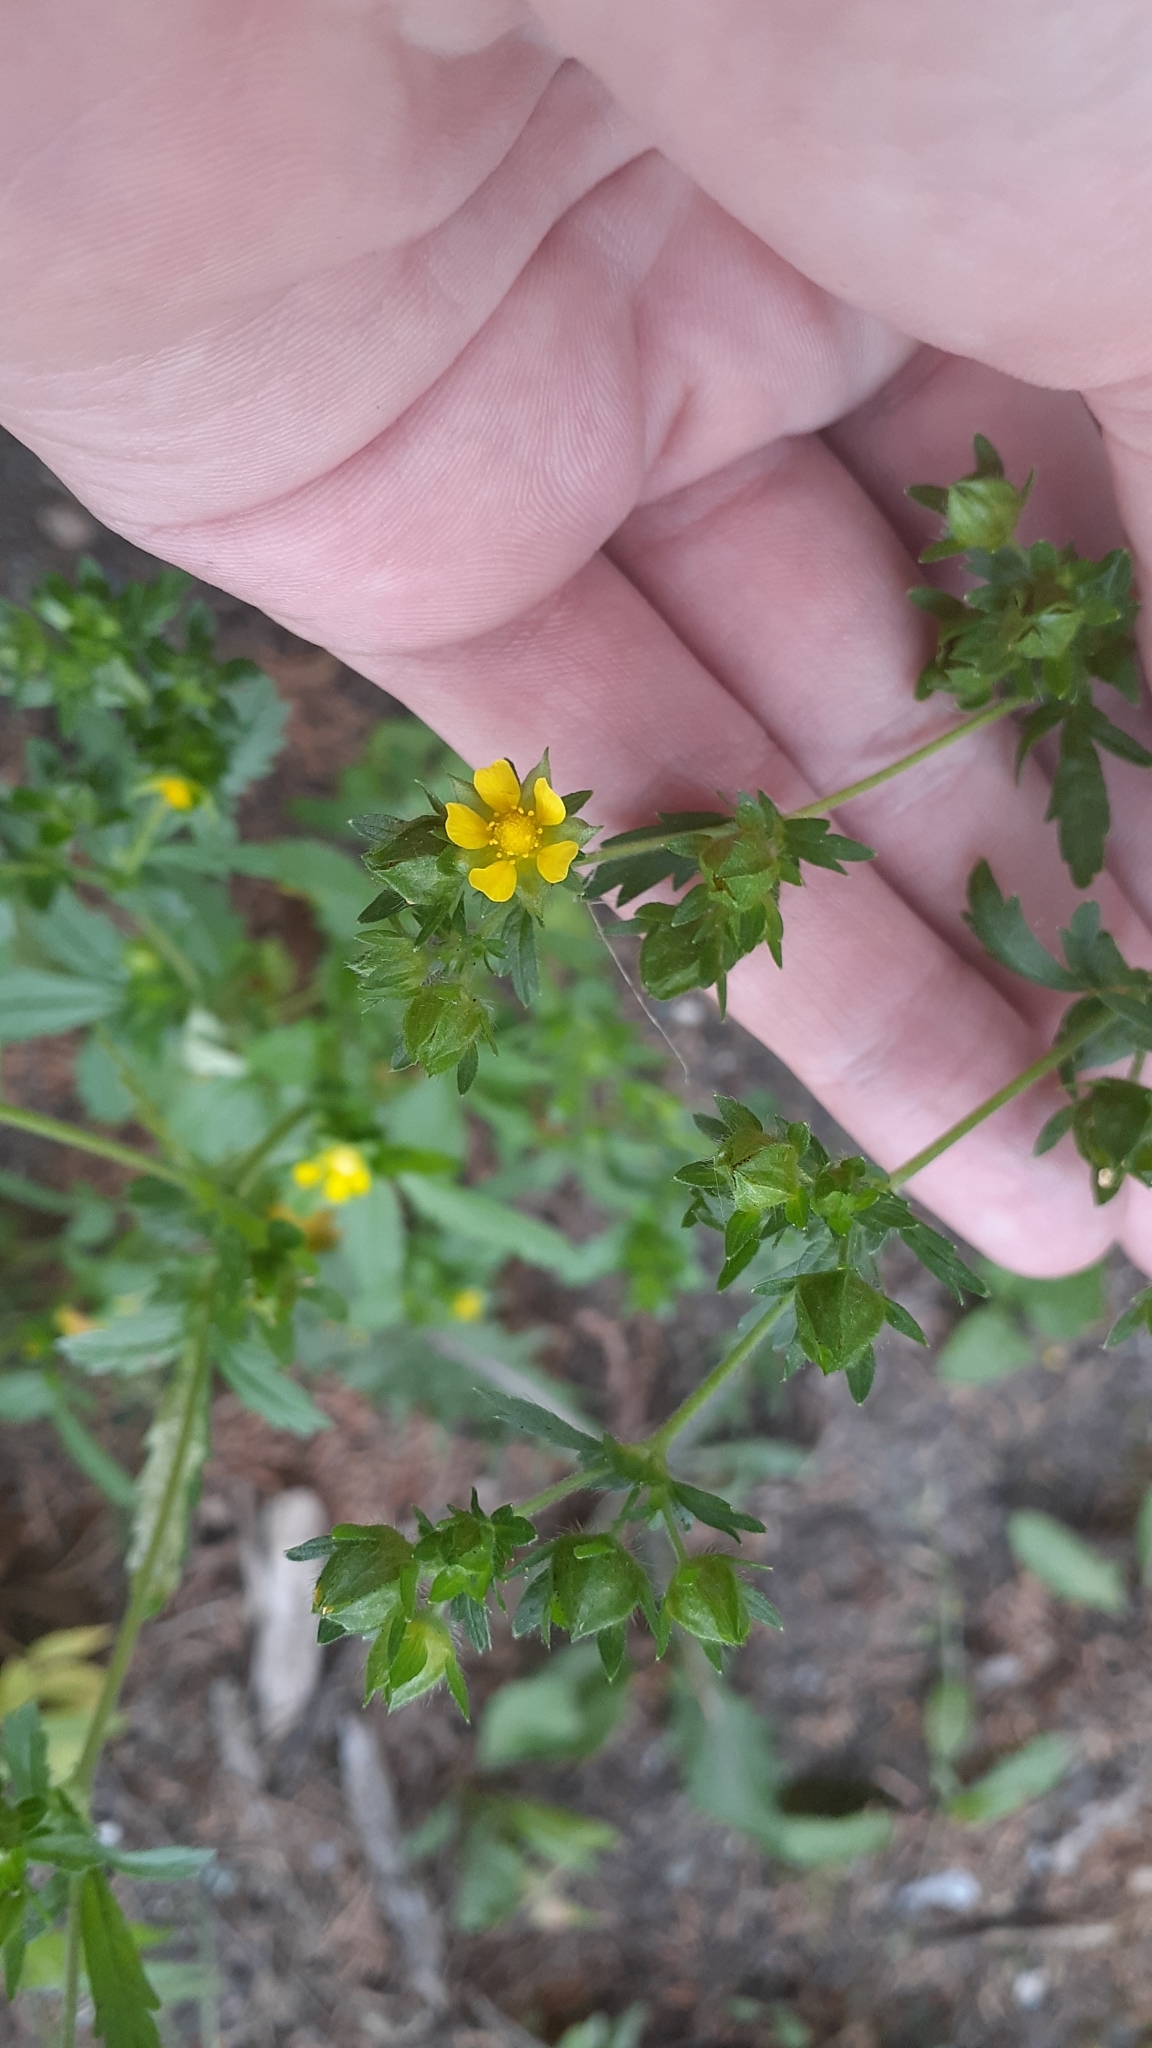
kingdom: Plantae
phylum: Tracheophyta
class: Magnoliopsida
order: Rosales
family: Rosaceae
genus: Potentilla
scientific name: Potentilla norvegica
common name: Ternate-leaved cinquefoil
